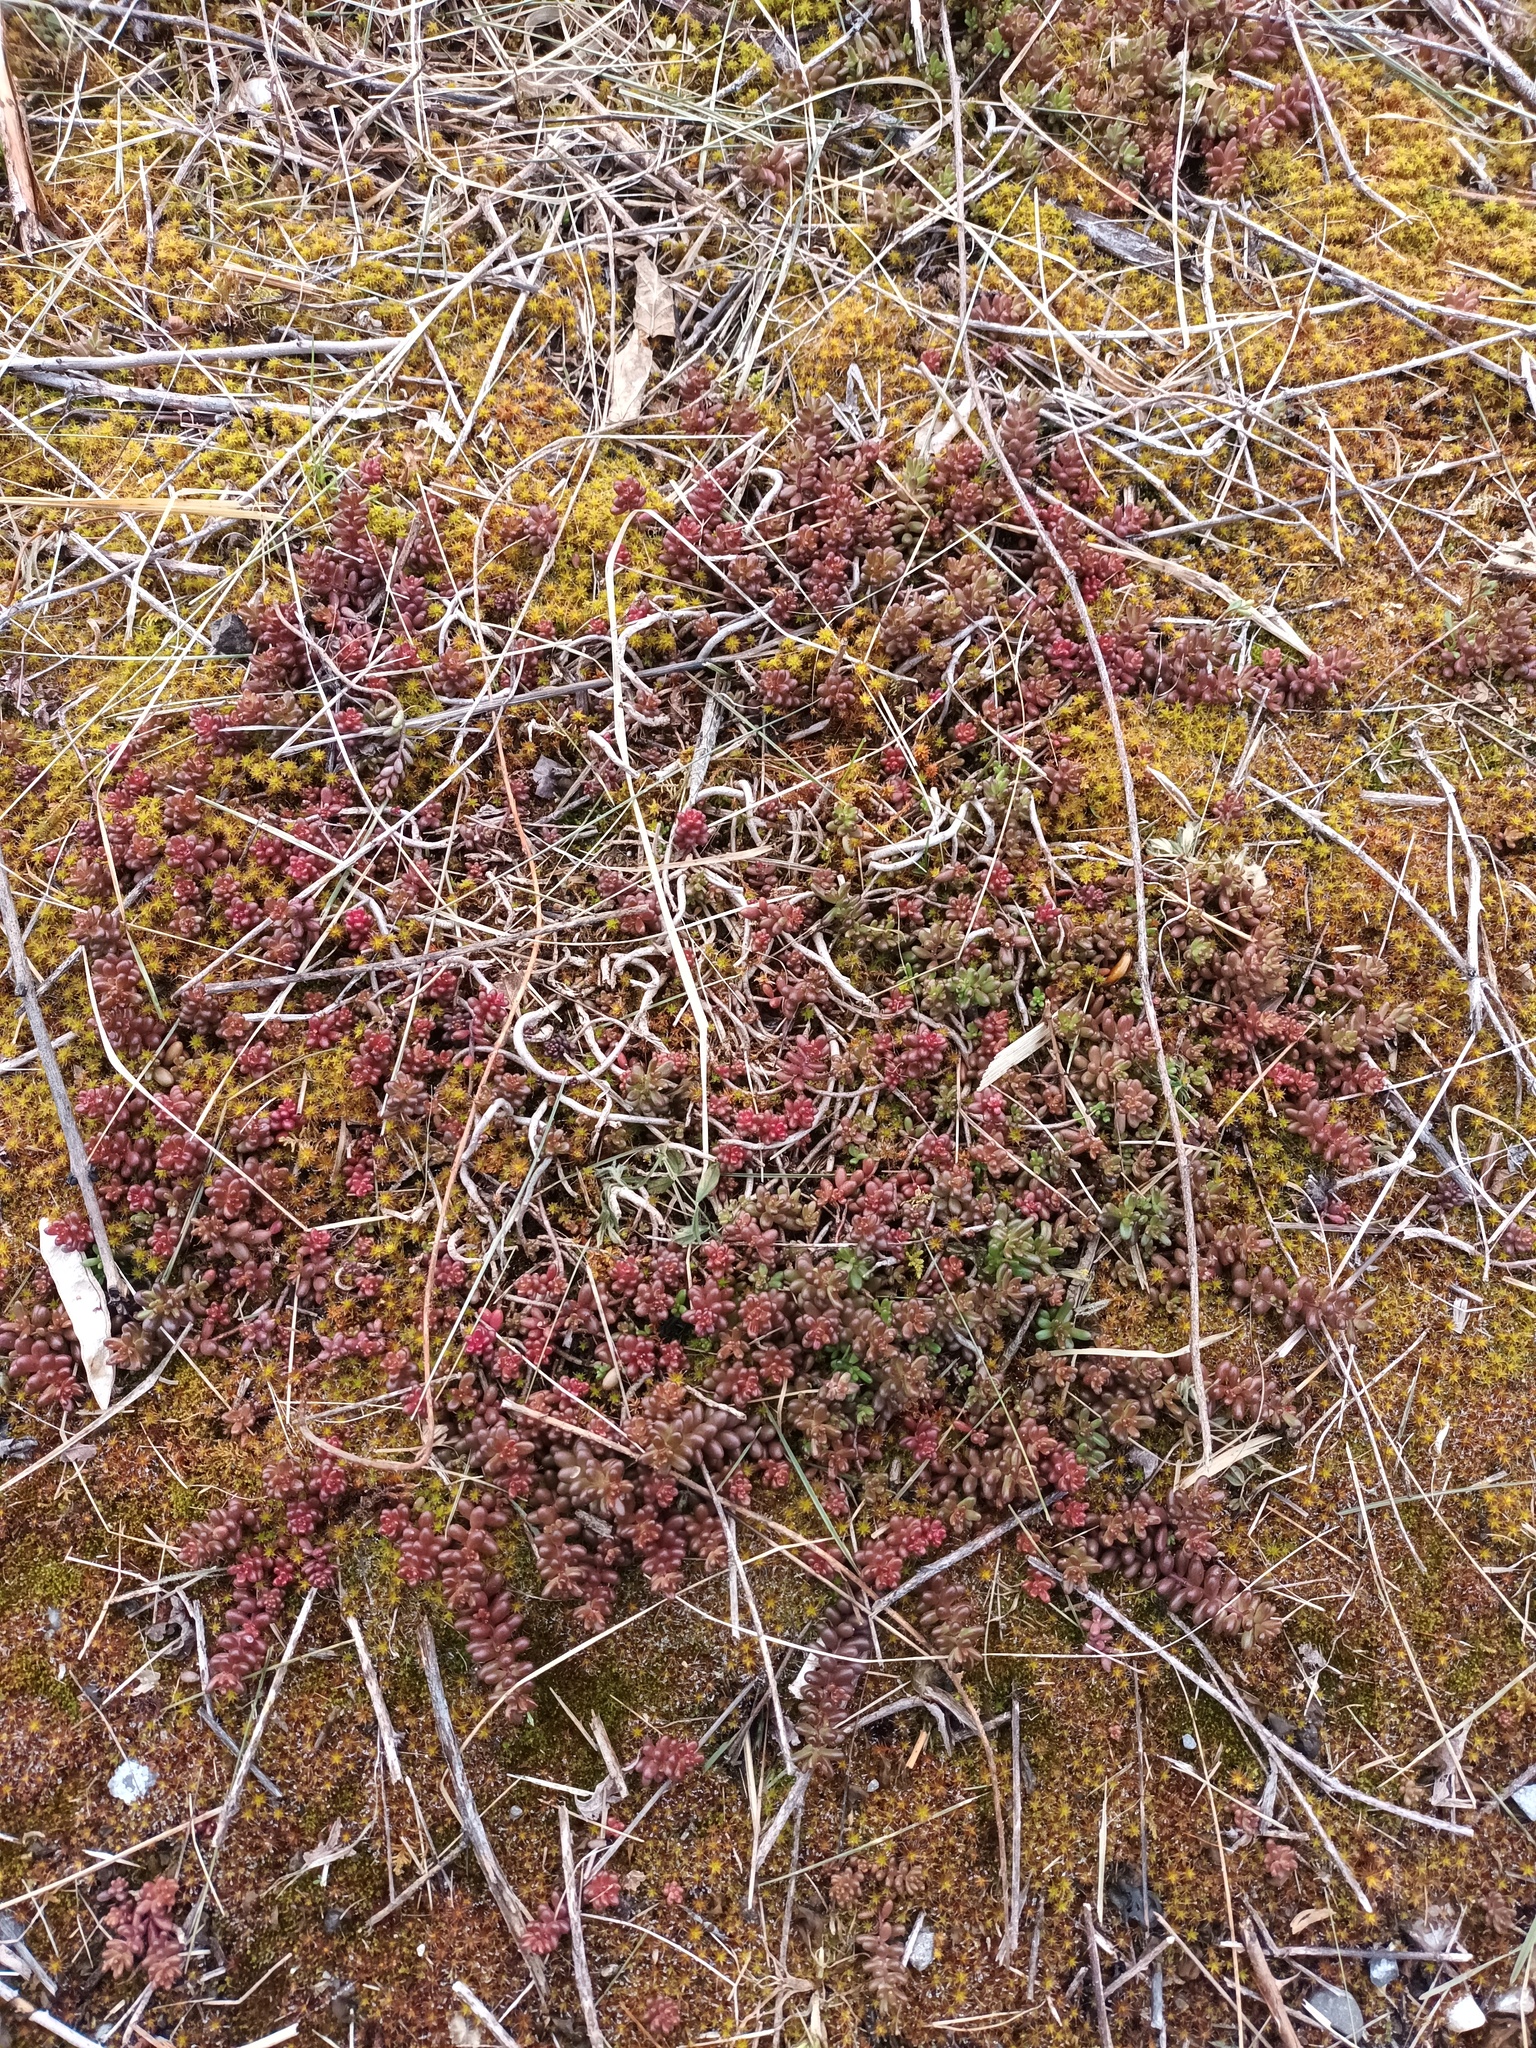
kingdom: Plantae
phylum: Tracheophyta
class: Magnoliopsida
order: Saxifragales
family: Crassulaceae
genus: Sedum
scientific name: Sedum album
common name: White stonecrop
